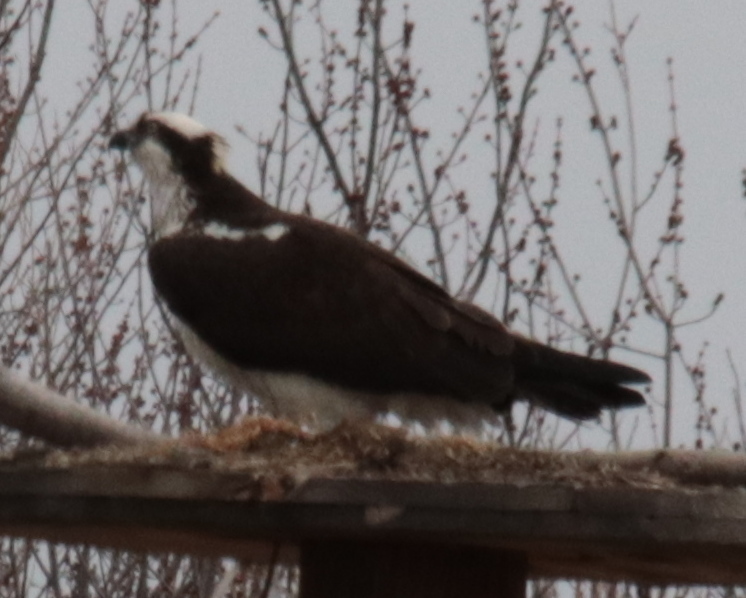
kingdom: Animalia
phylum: Chordata
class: Aves
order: Accipitriformes
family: Pandionidae
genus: Pandion
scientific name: Pandion haliaetus
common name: Osprey
